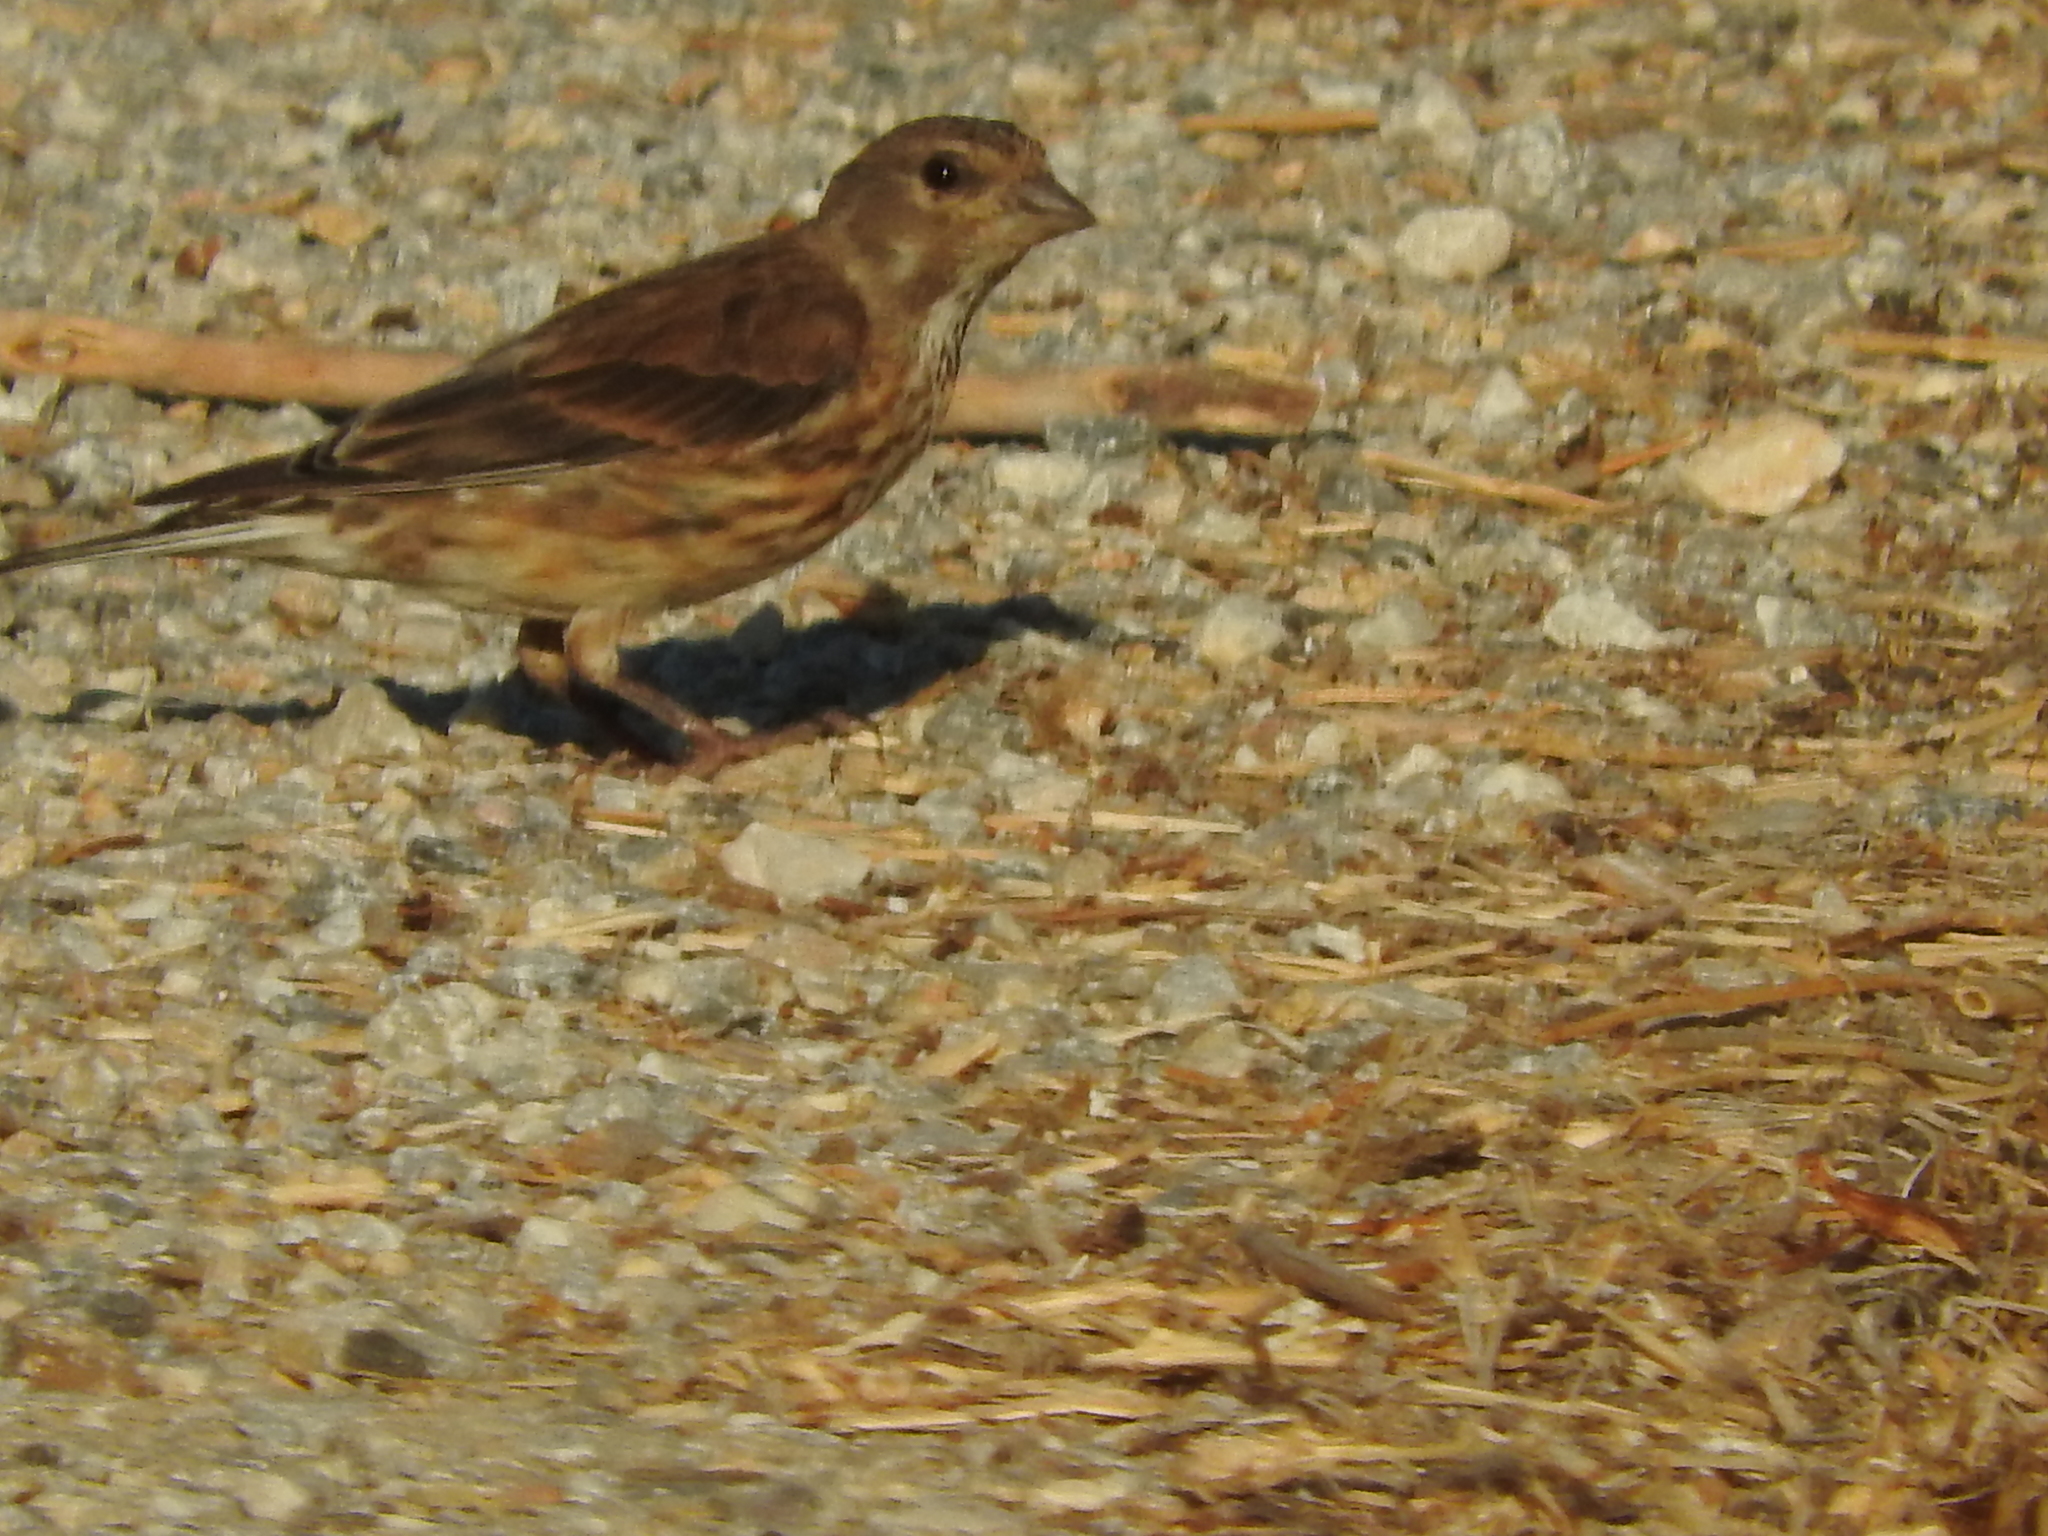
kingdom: Animalia
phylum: Chordata
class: Aves
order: Passeriformes
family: Fringillidae
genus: Linaria
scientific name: Linaria cannabina
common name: Common linnet
